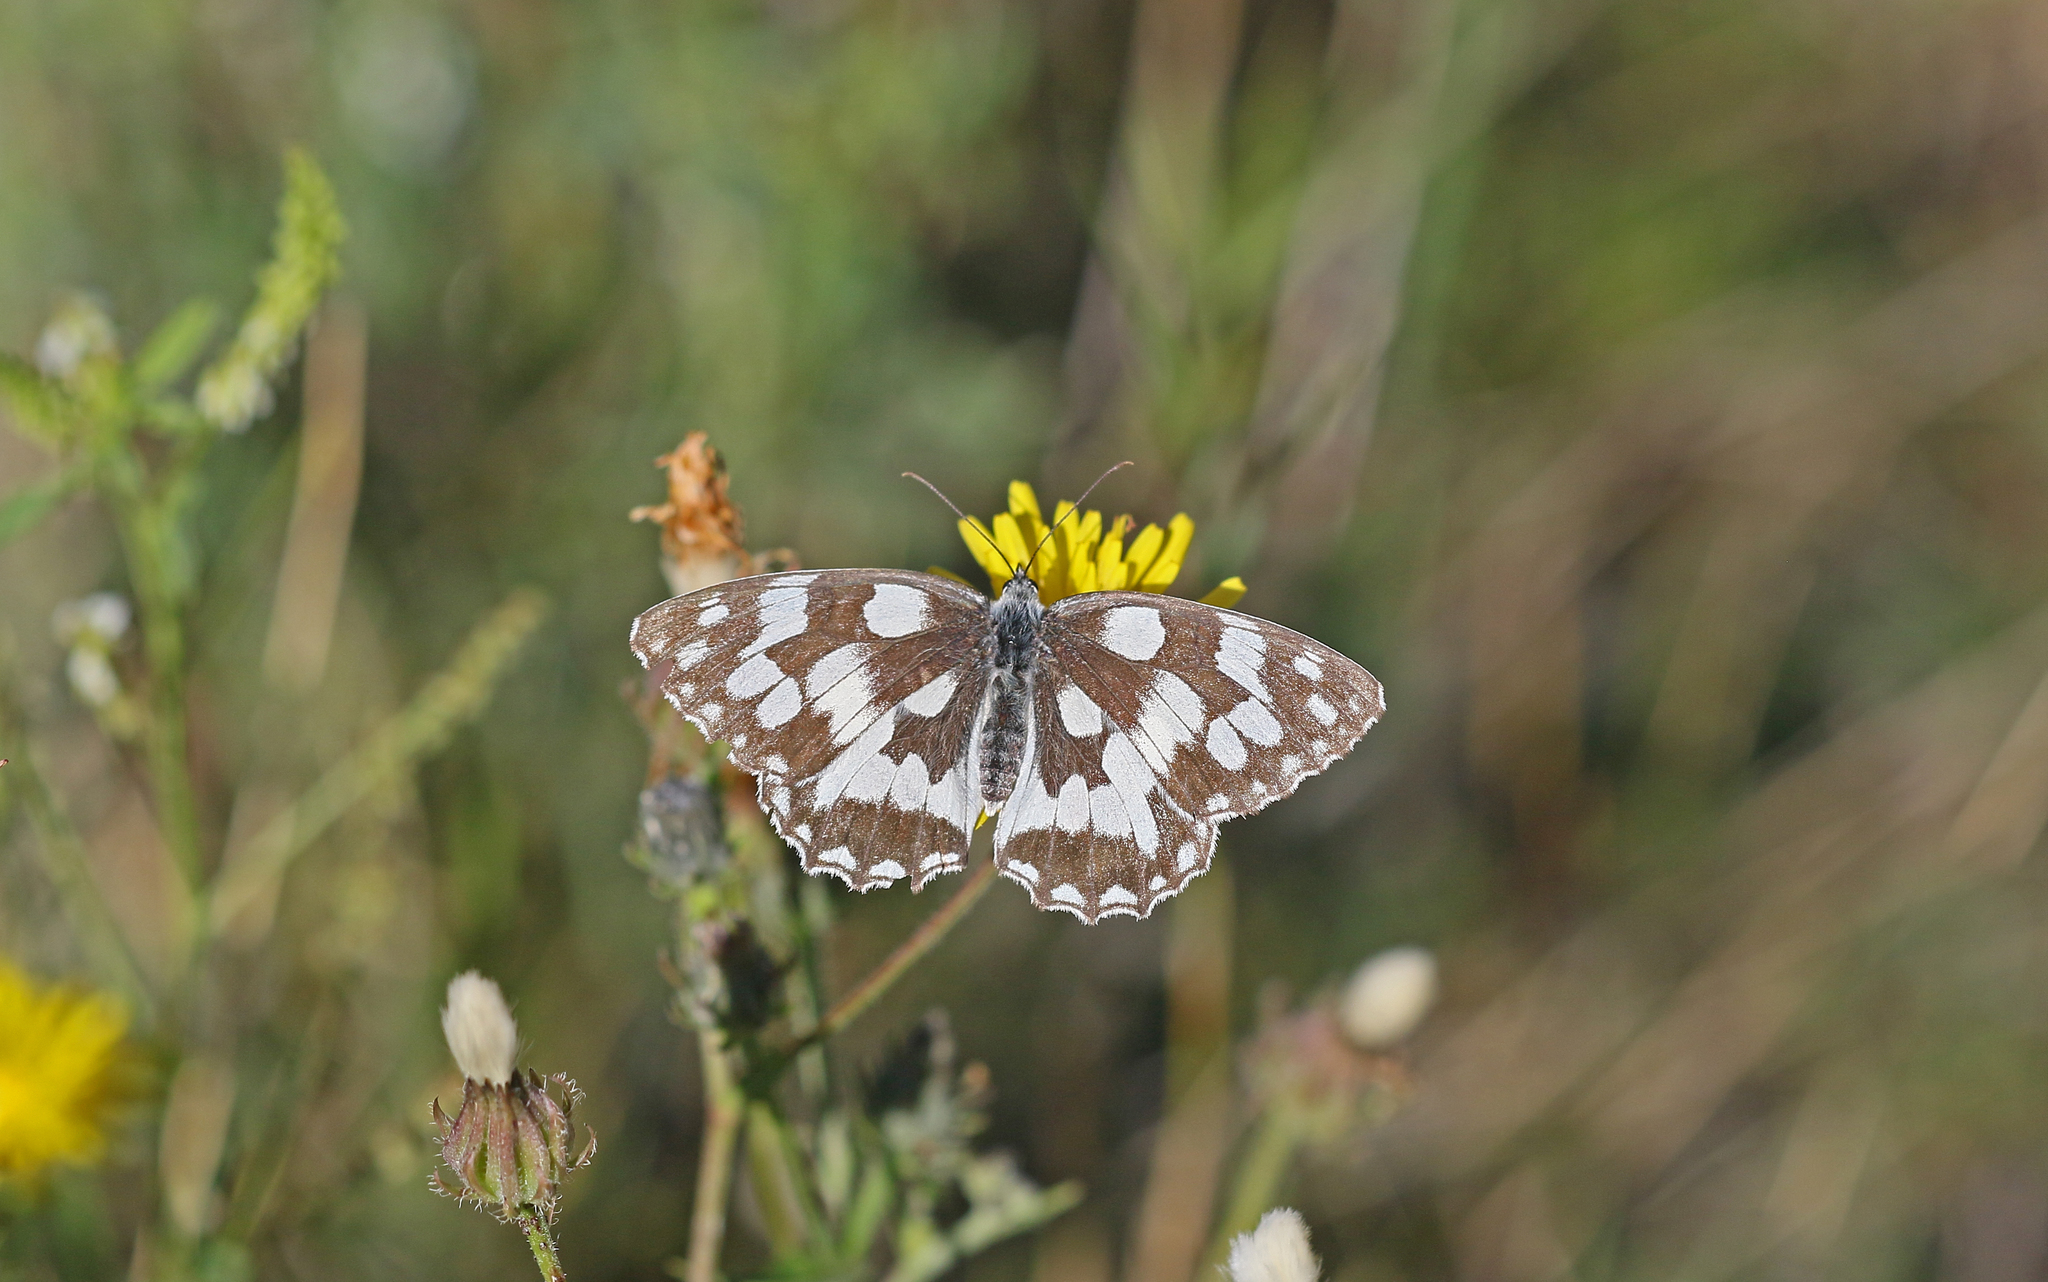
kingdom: Animalia
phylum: Arthropoda
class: Insecta
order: Lepidoptera
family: Nymphalidae
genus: Melanargia
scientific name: Melanargia galathea
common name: Marbled white
